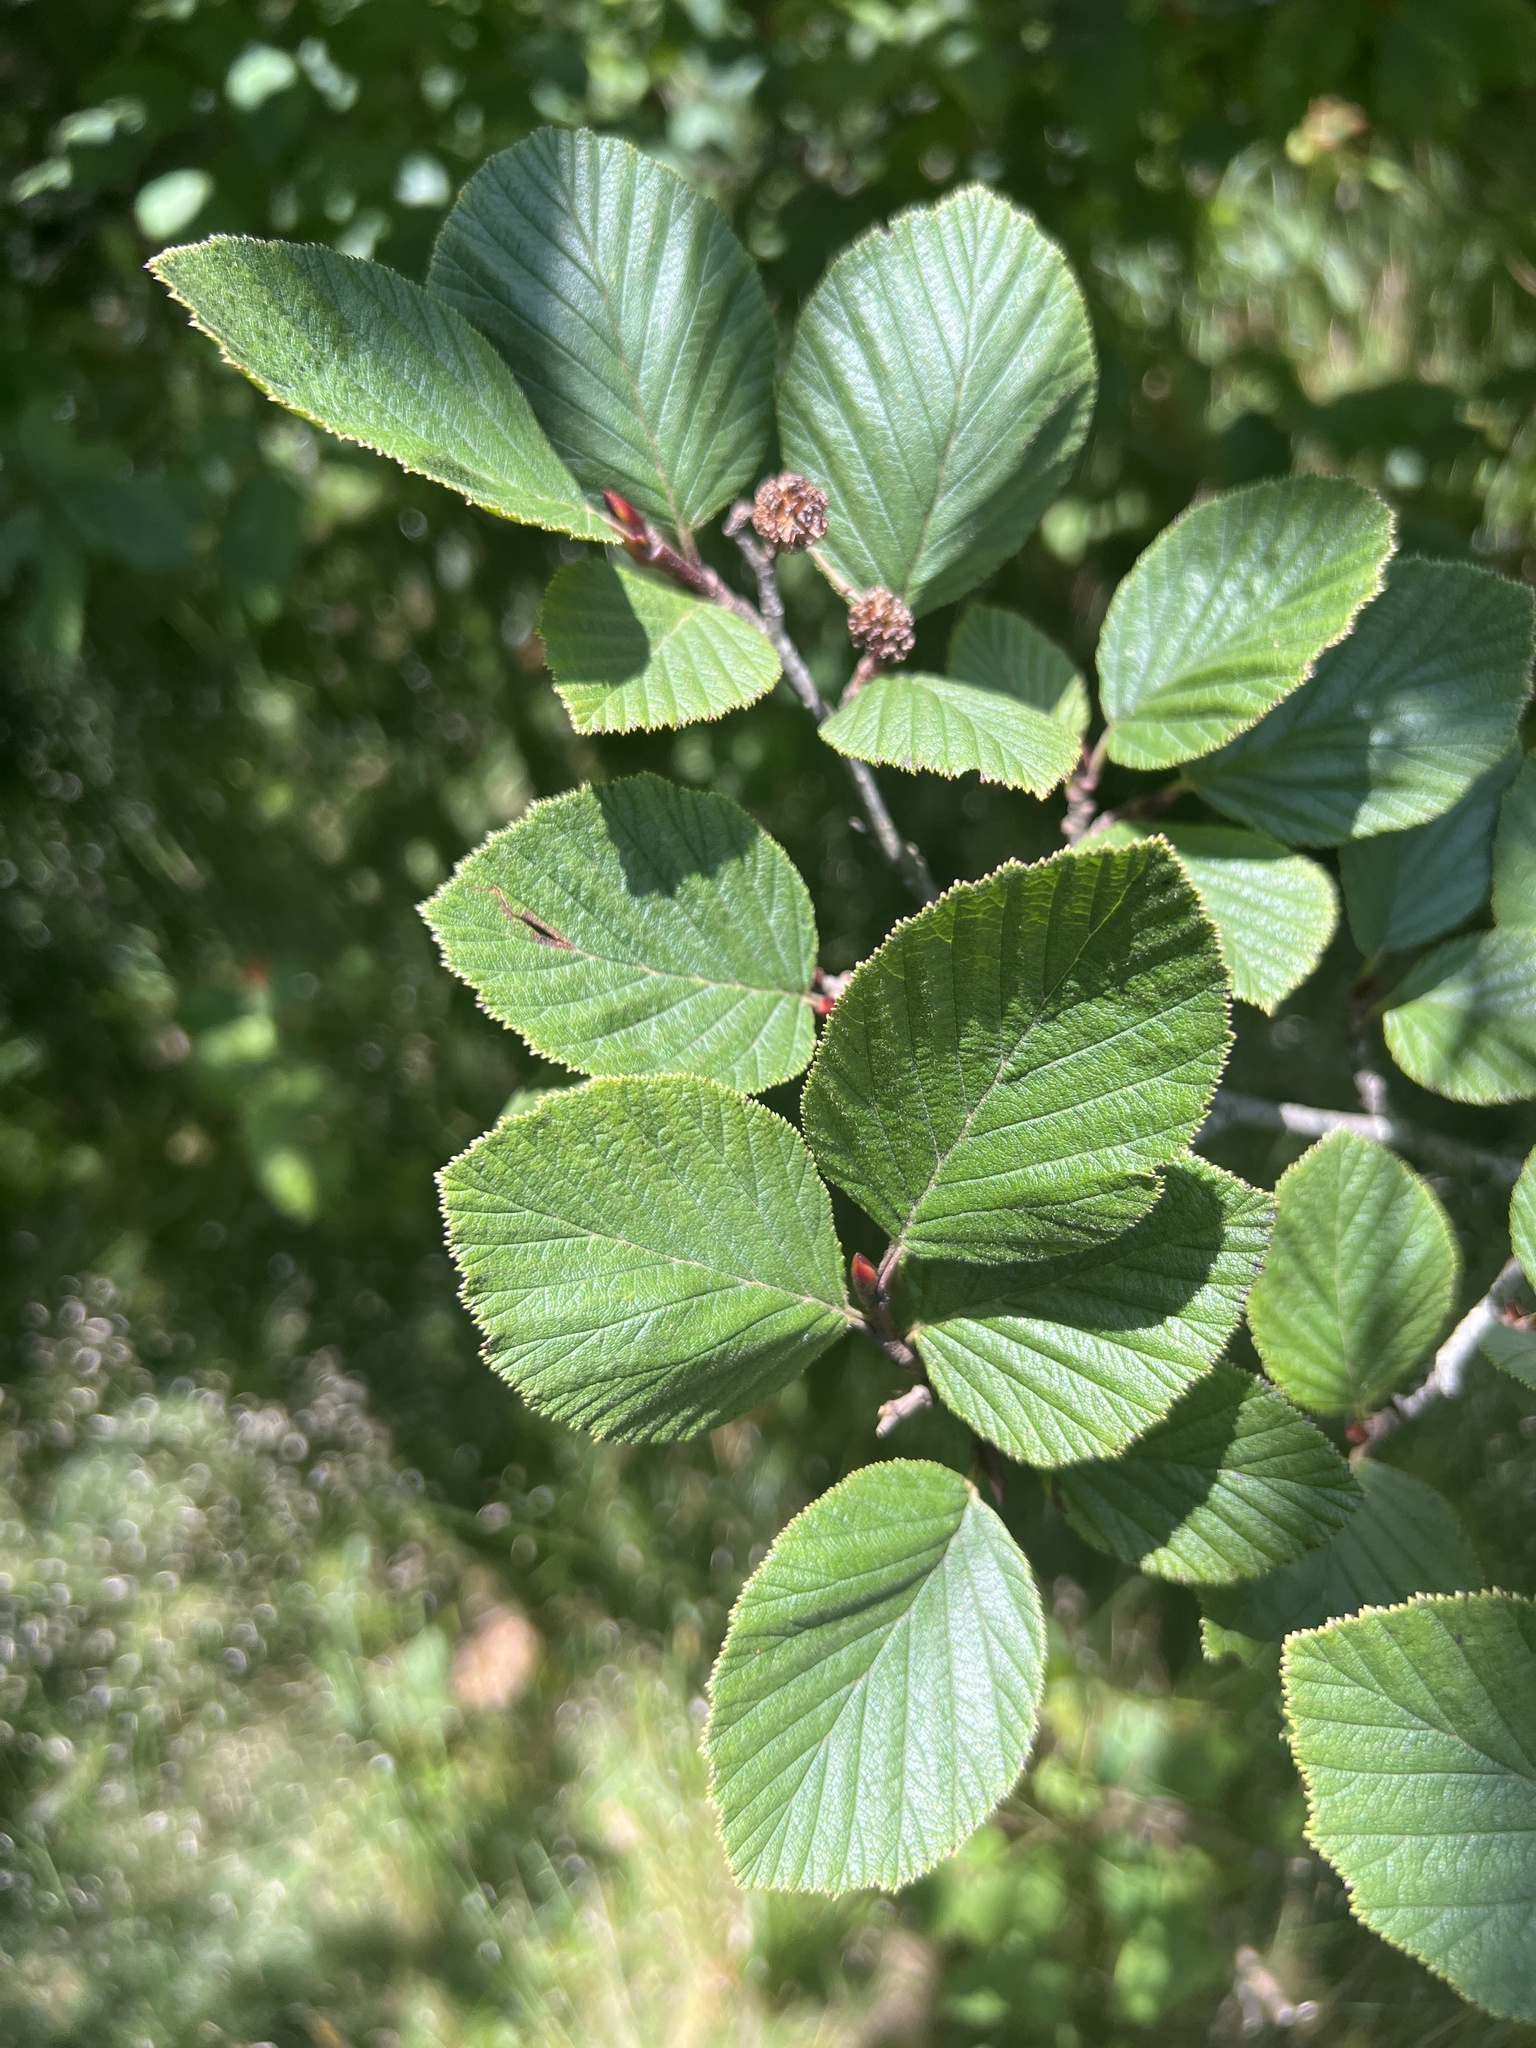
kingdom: Plantae
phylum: Tracheophyta
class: Magnoliopsida
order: Fagales
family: Betulaceae
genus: Alnus
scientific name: Alnus alnobetula
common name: Green alder
